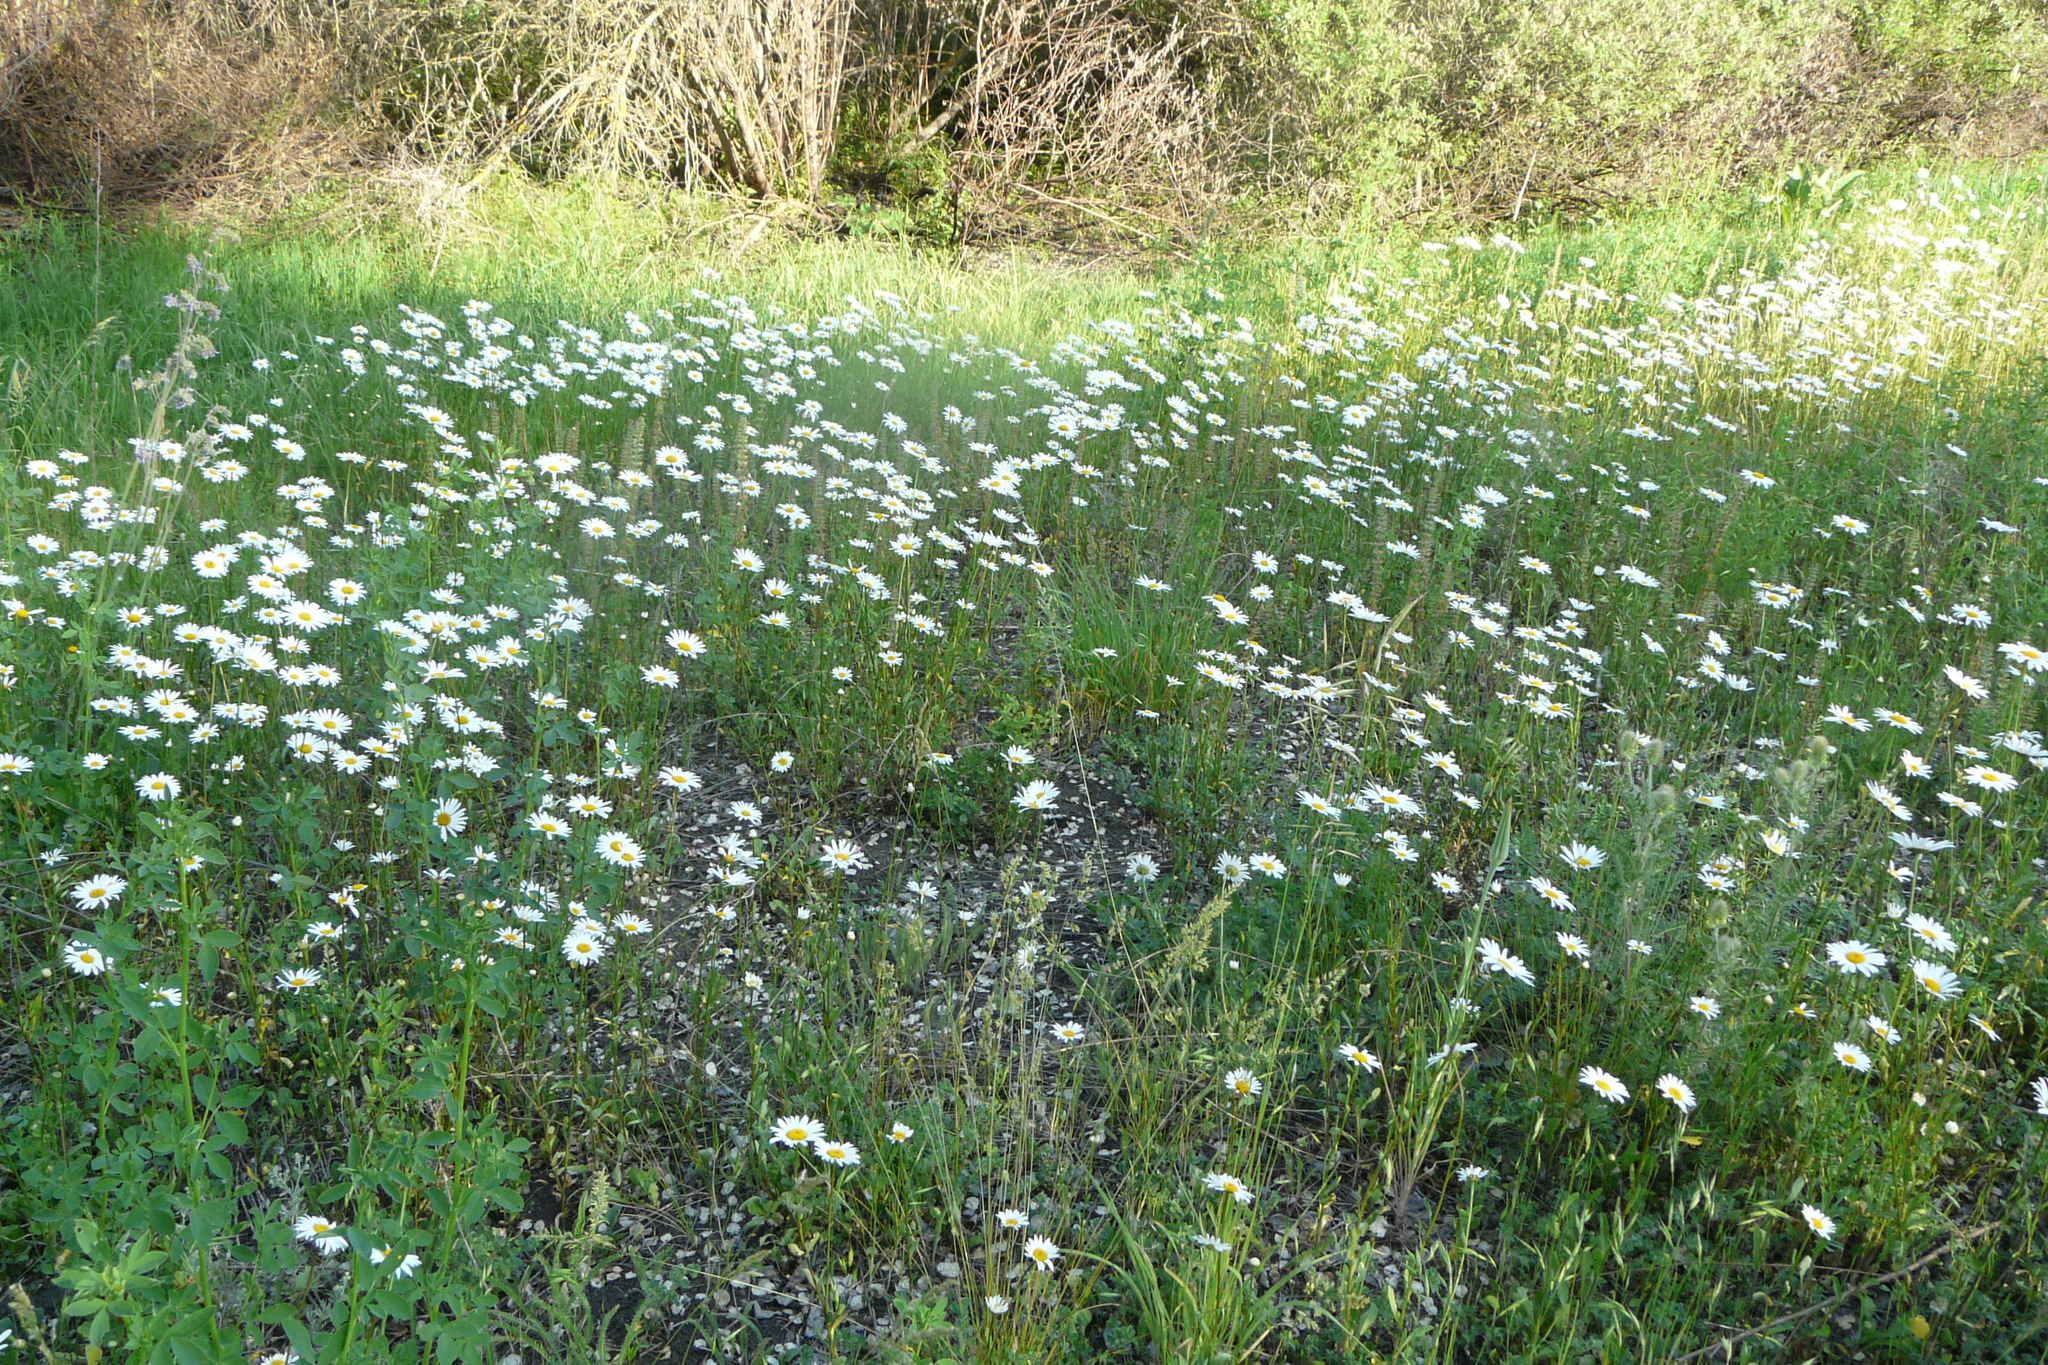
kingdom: Plantae
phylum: Tracheophyta
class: Magnoliopsida
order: Asterales
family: Asteraceae
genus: Leucanthemum
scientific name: Leucanthemum vulgare
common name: Oxeye daisy
